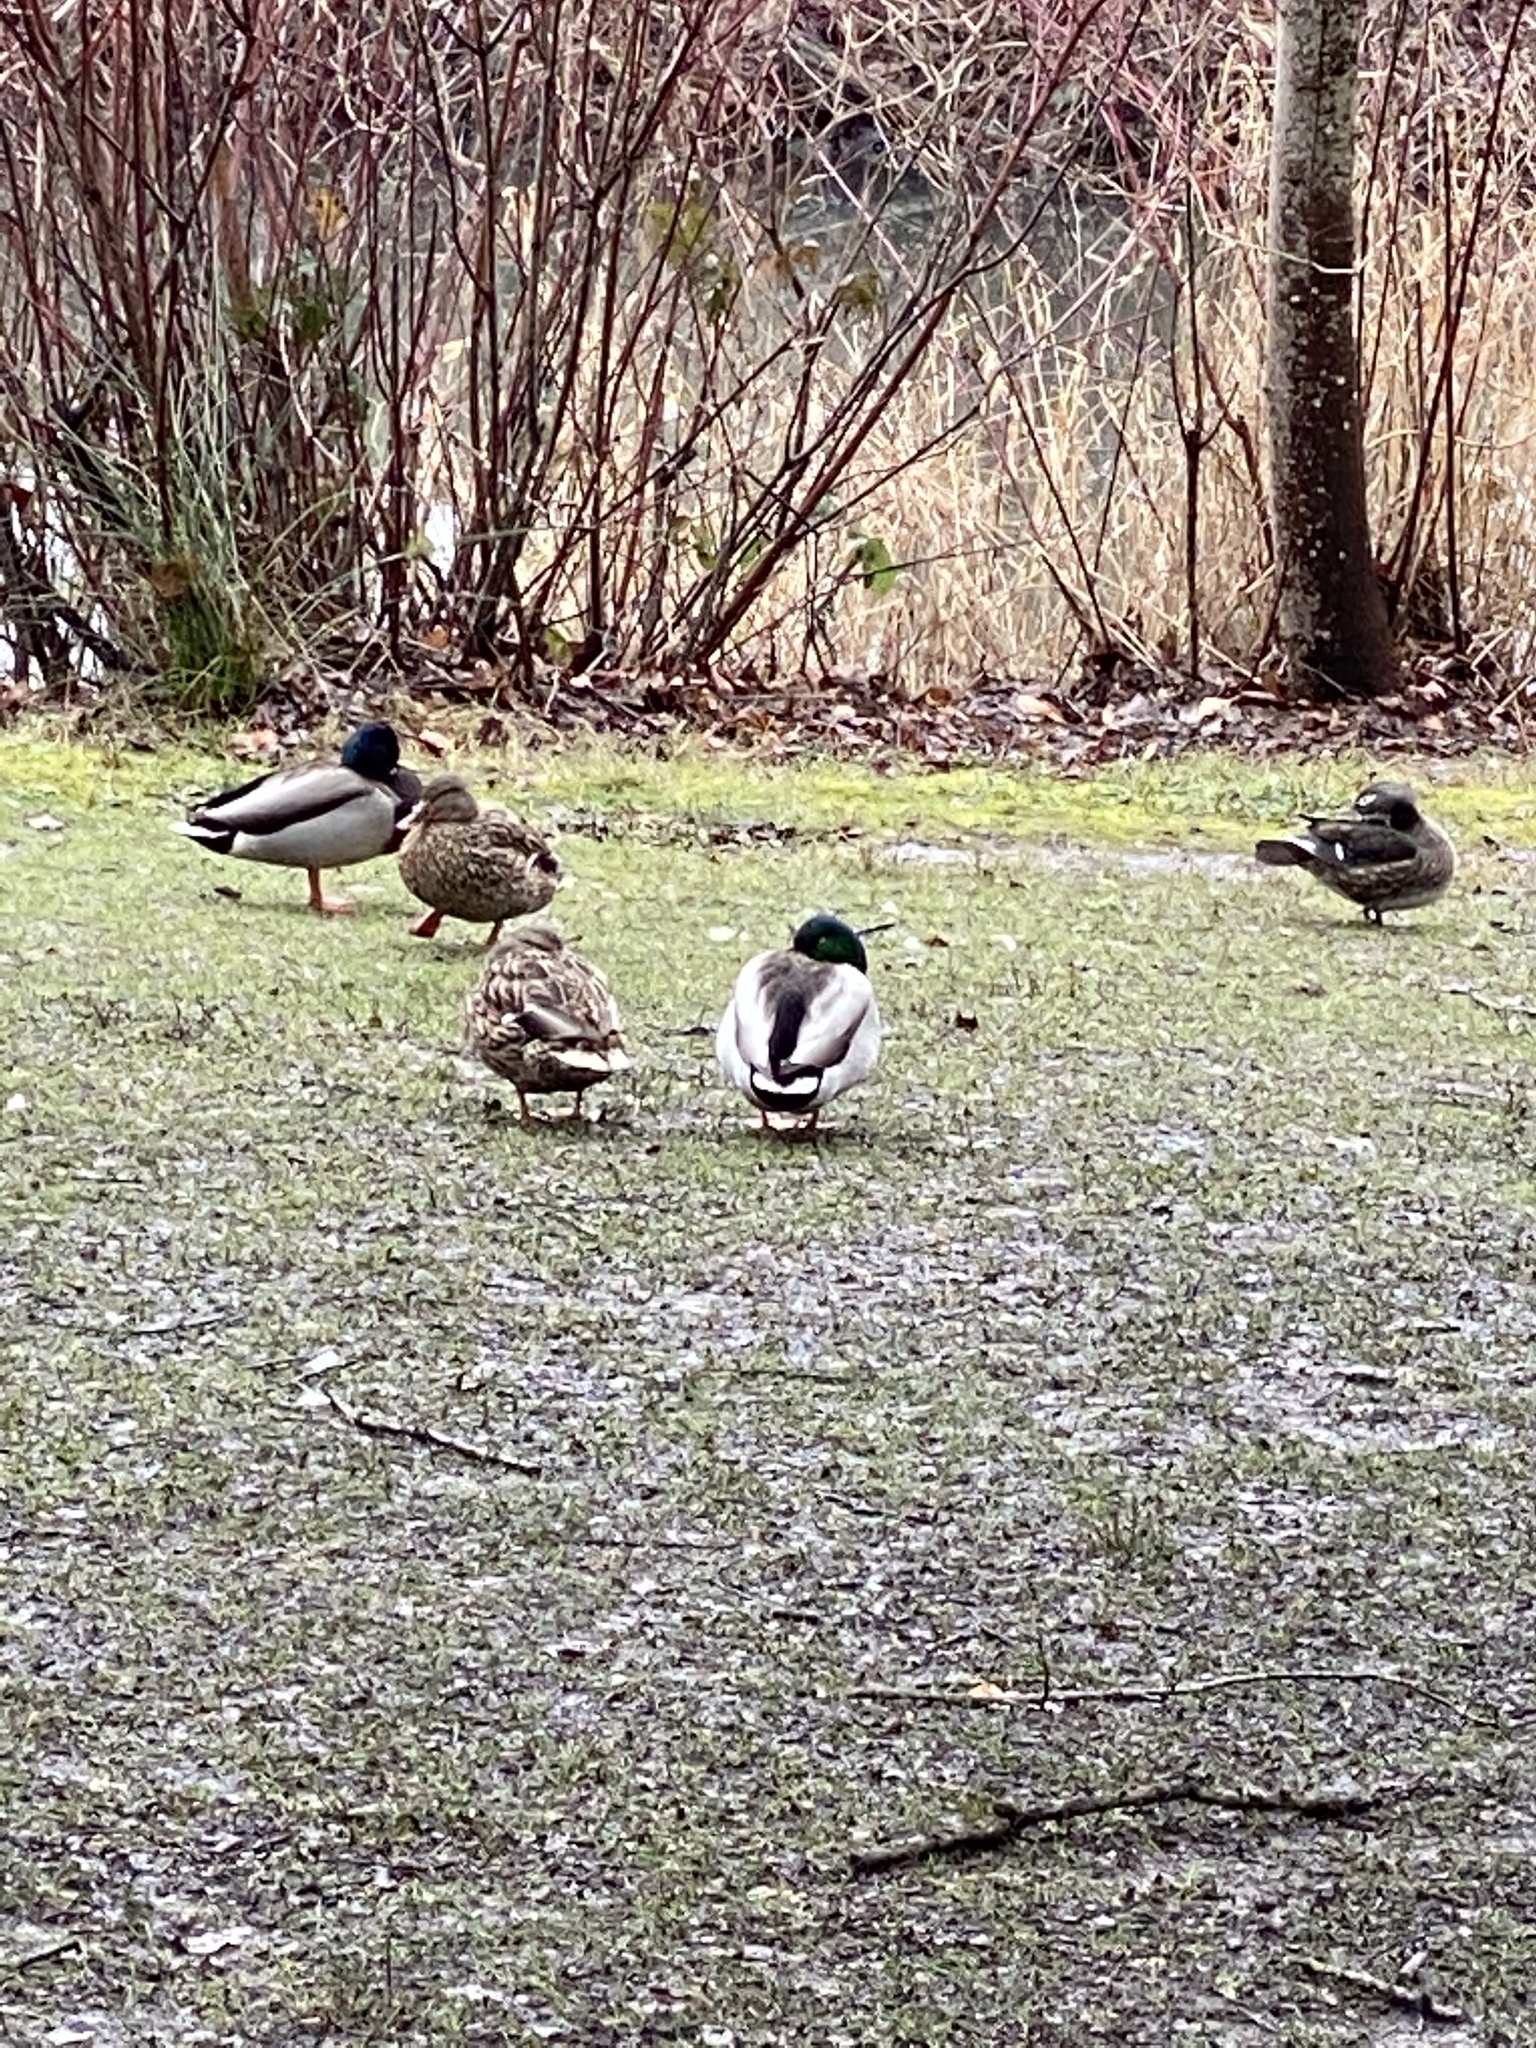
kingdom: Animalia
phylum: Chordata
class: Aves
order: Anseriformes
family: Anatidae
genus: Anas
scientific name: Anas platyrhynchos
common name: Mallard
